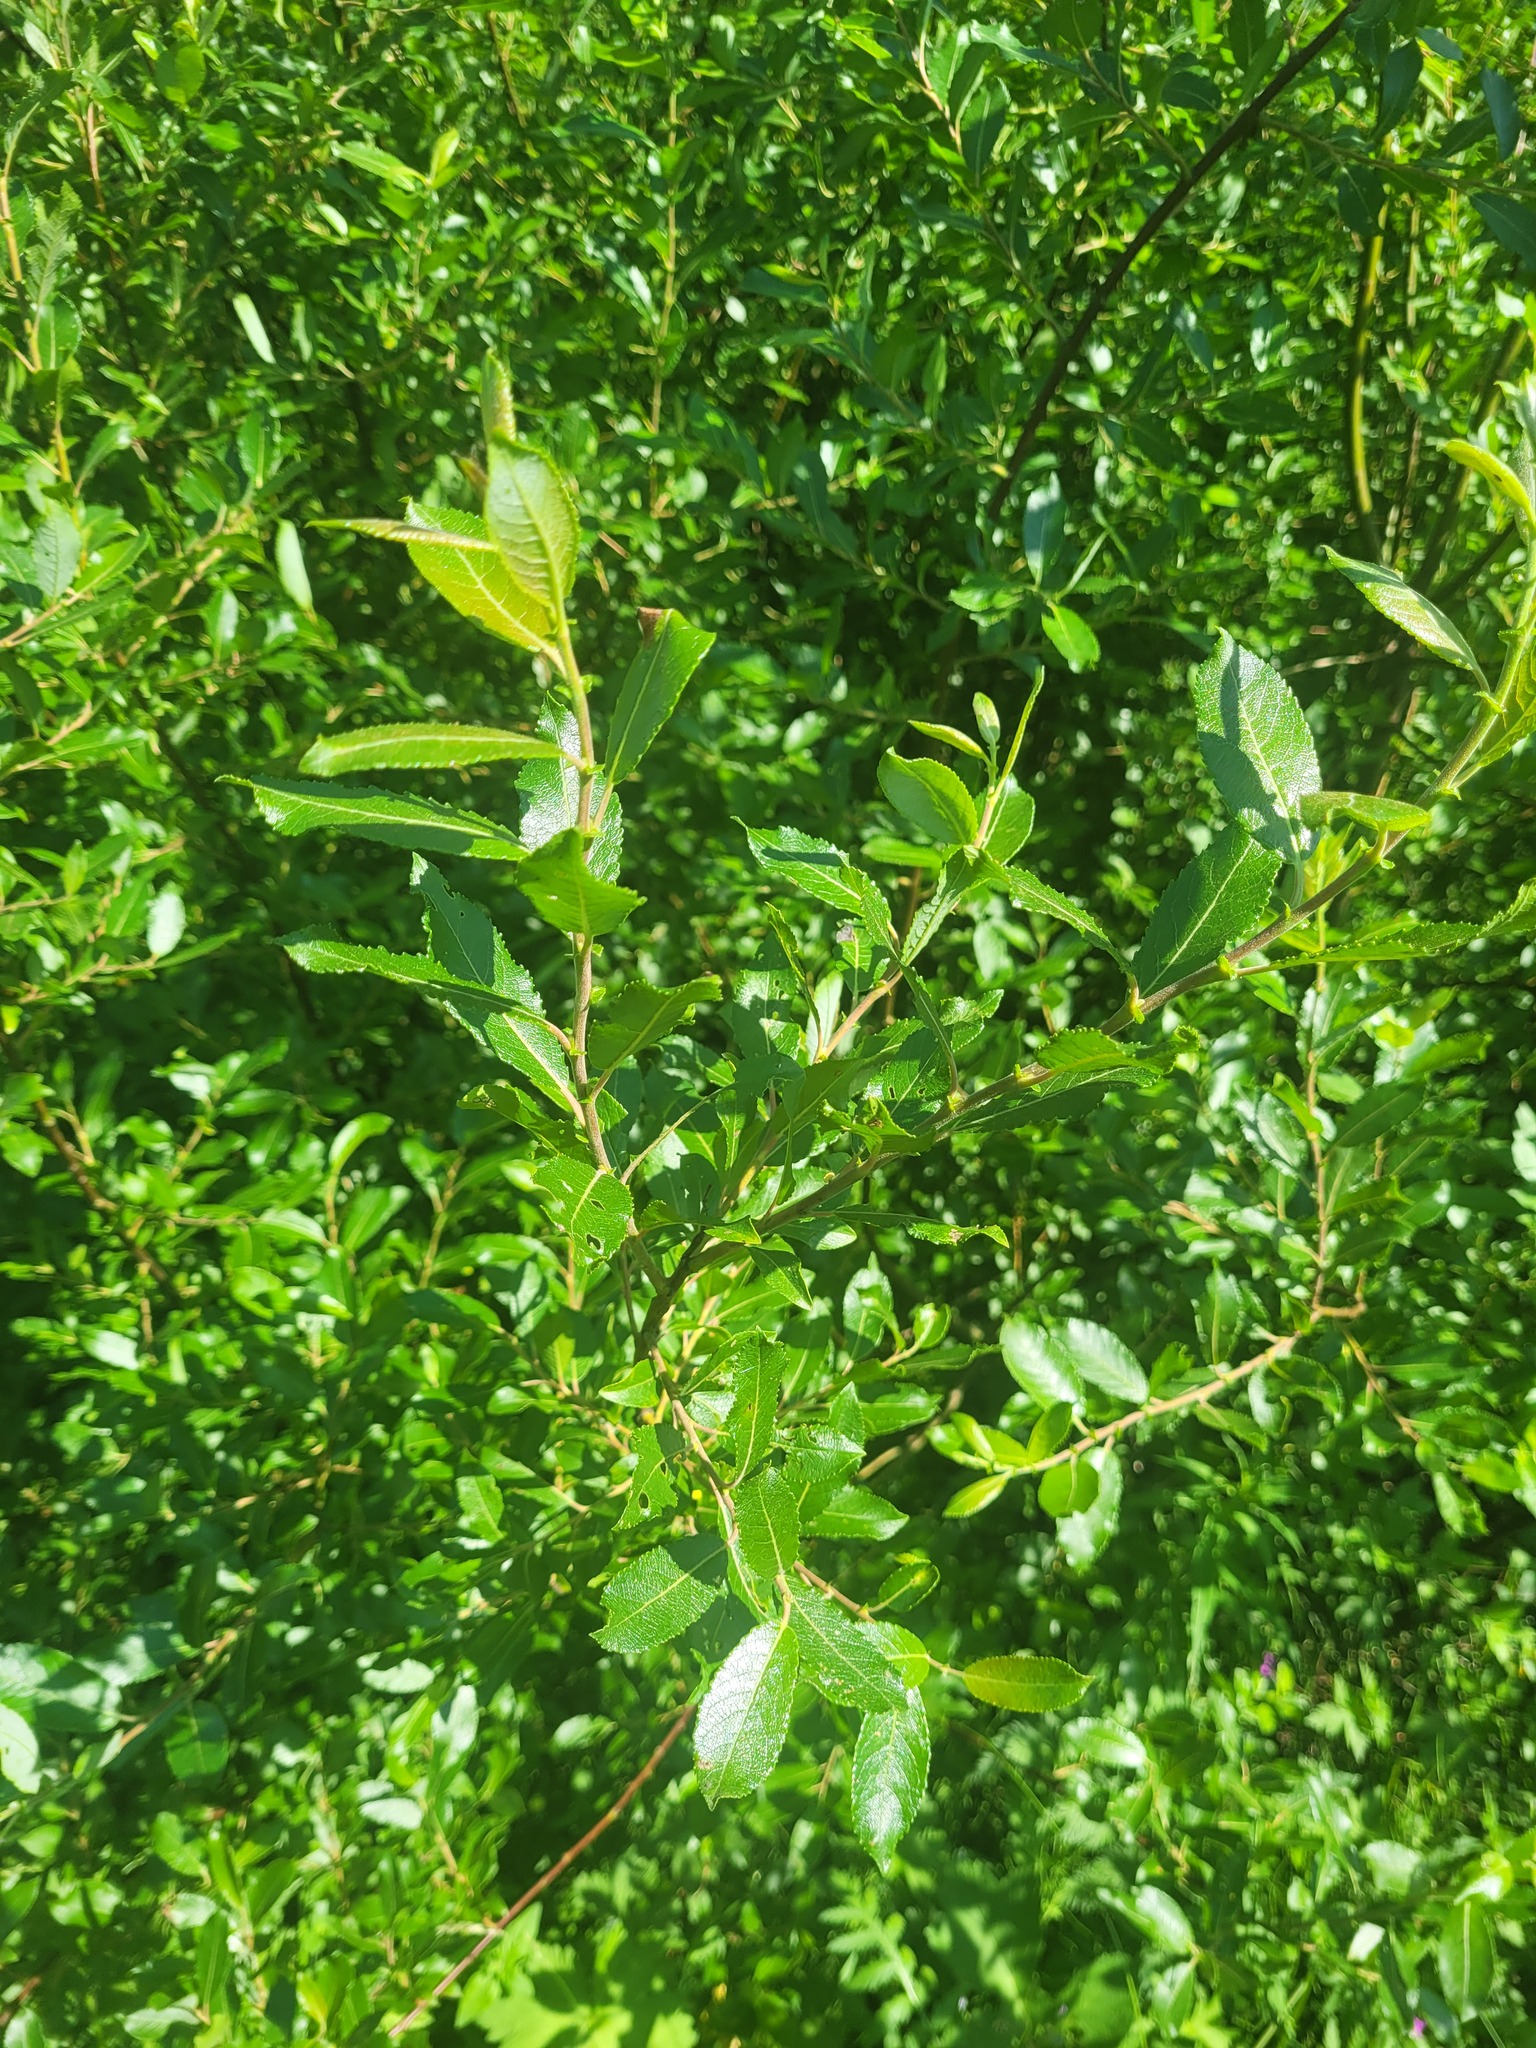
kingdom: Plantae
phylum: Tracheophyta
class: Magnoliopsida
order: Malpighiales
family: Salicaceae
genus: Salix
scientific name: Salix myrsinifolia
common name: Dark-leaved willow
